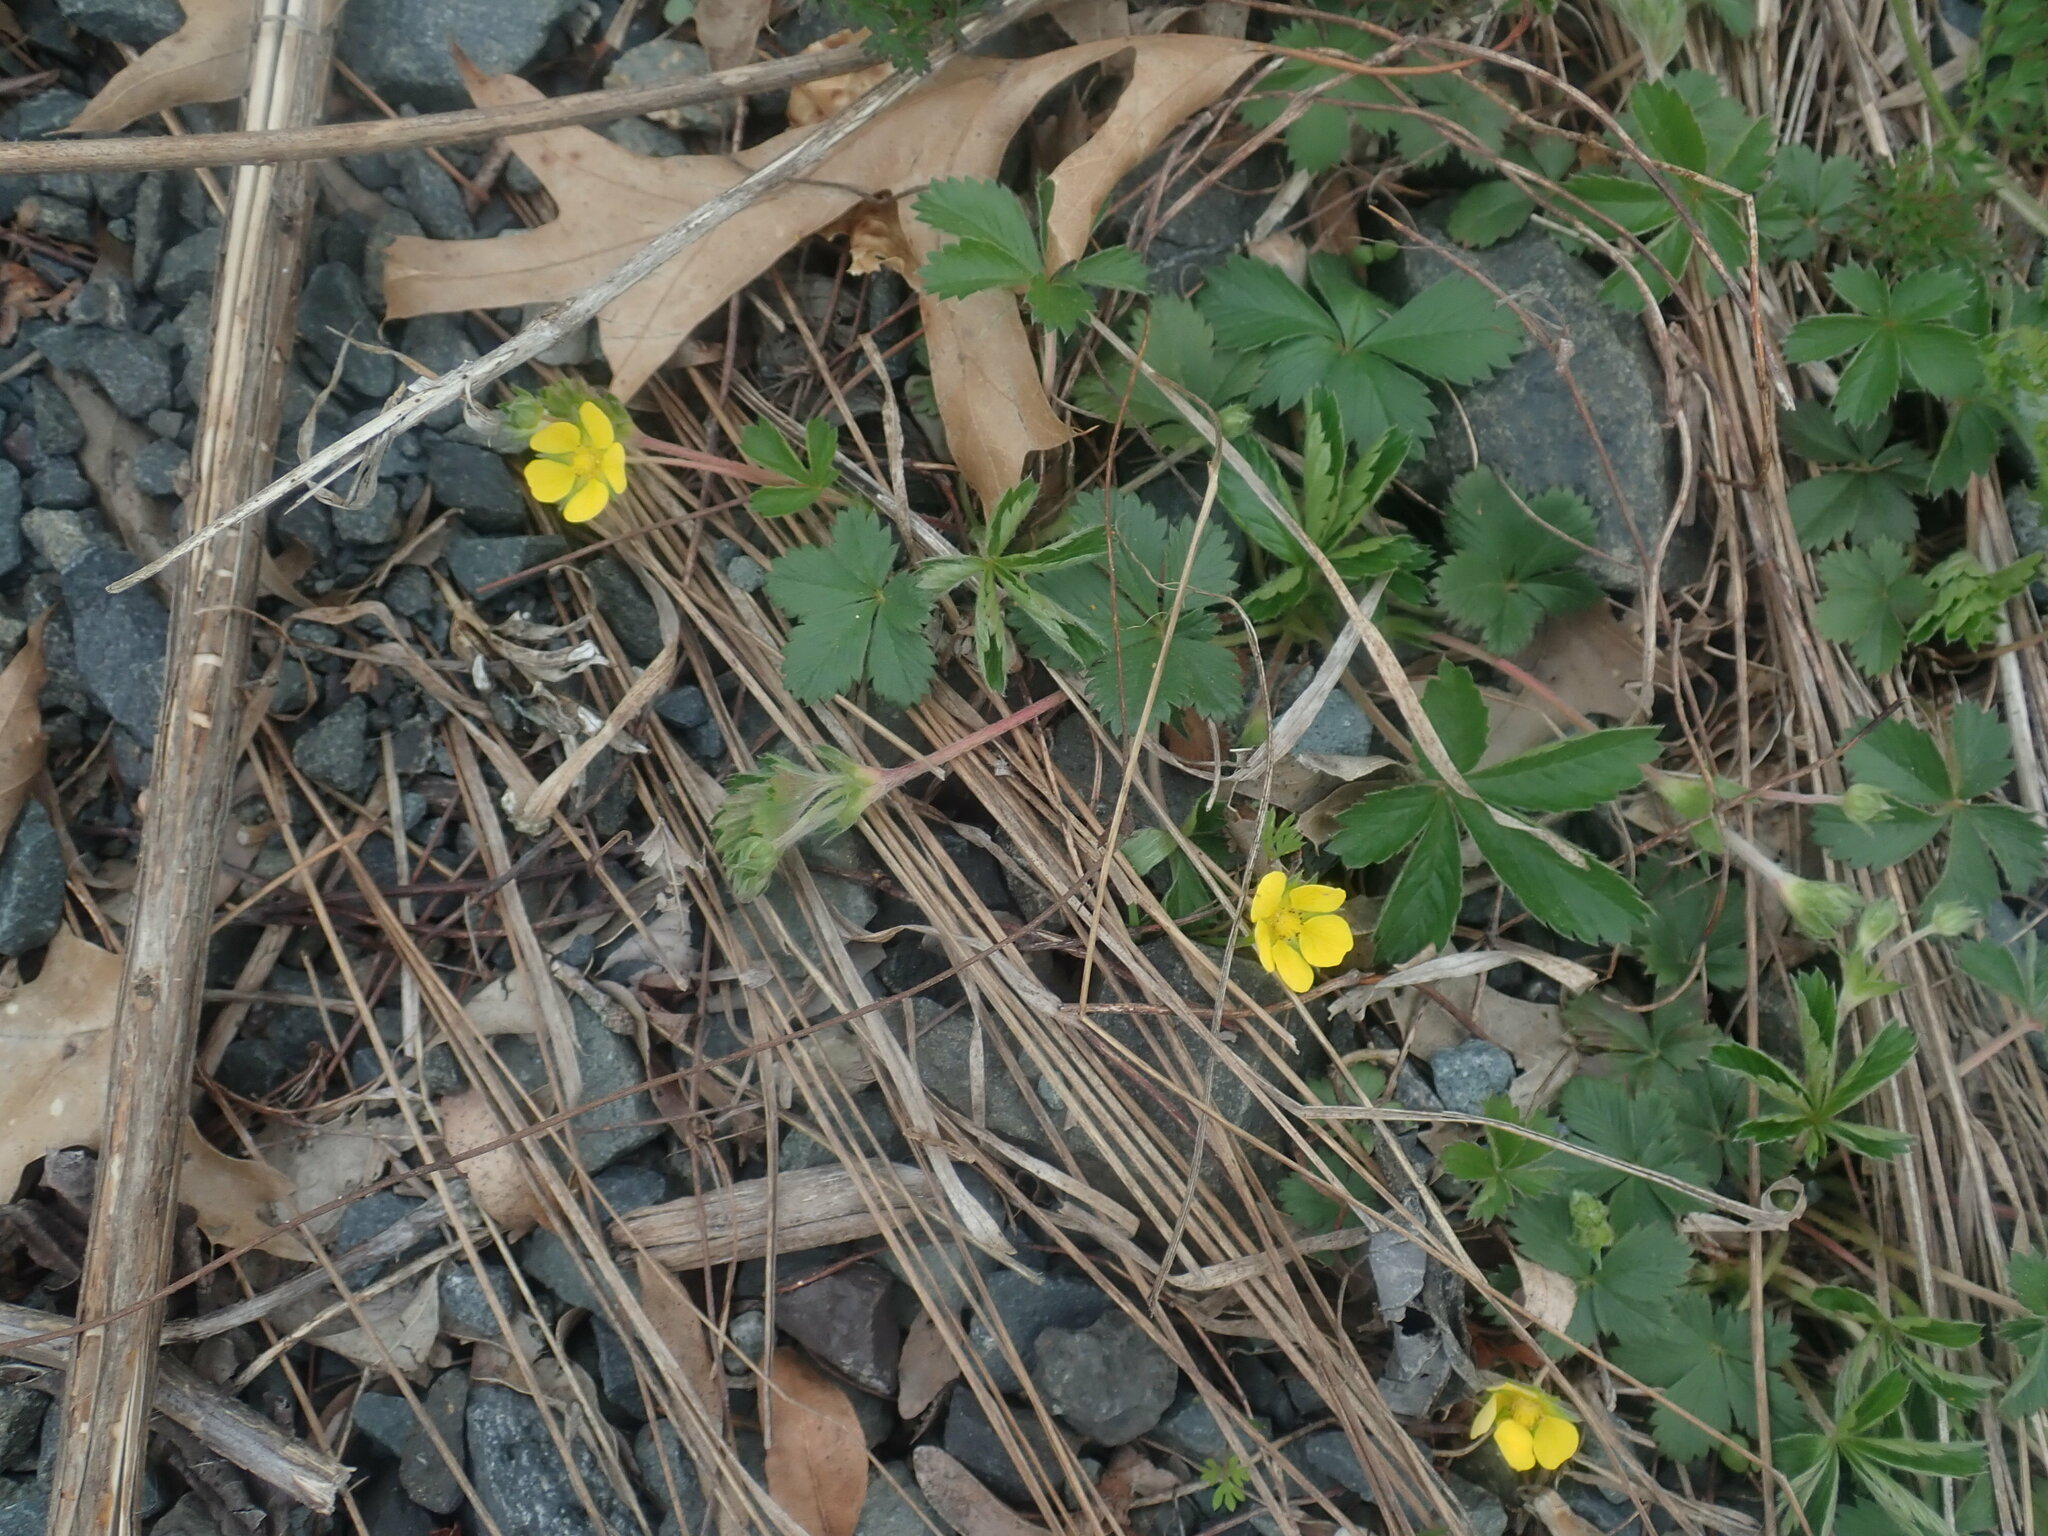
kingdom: Plantae
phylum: Tracheophyta
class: Magnoliopsida
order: Rosales
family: Rosaceae
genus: Potentilla
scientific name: Potentilla canadensis
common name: Canada cinquefoil
